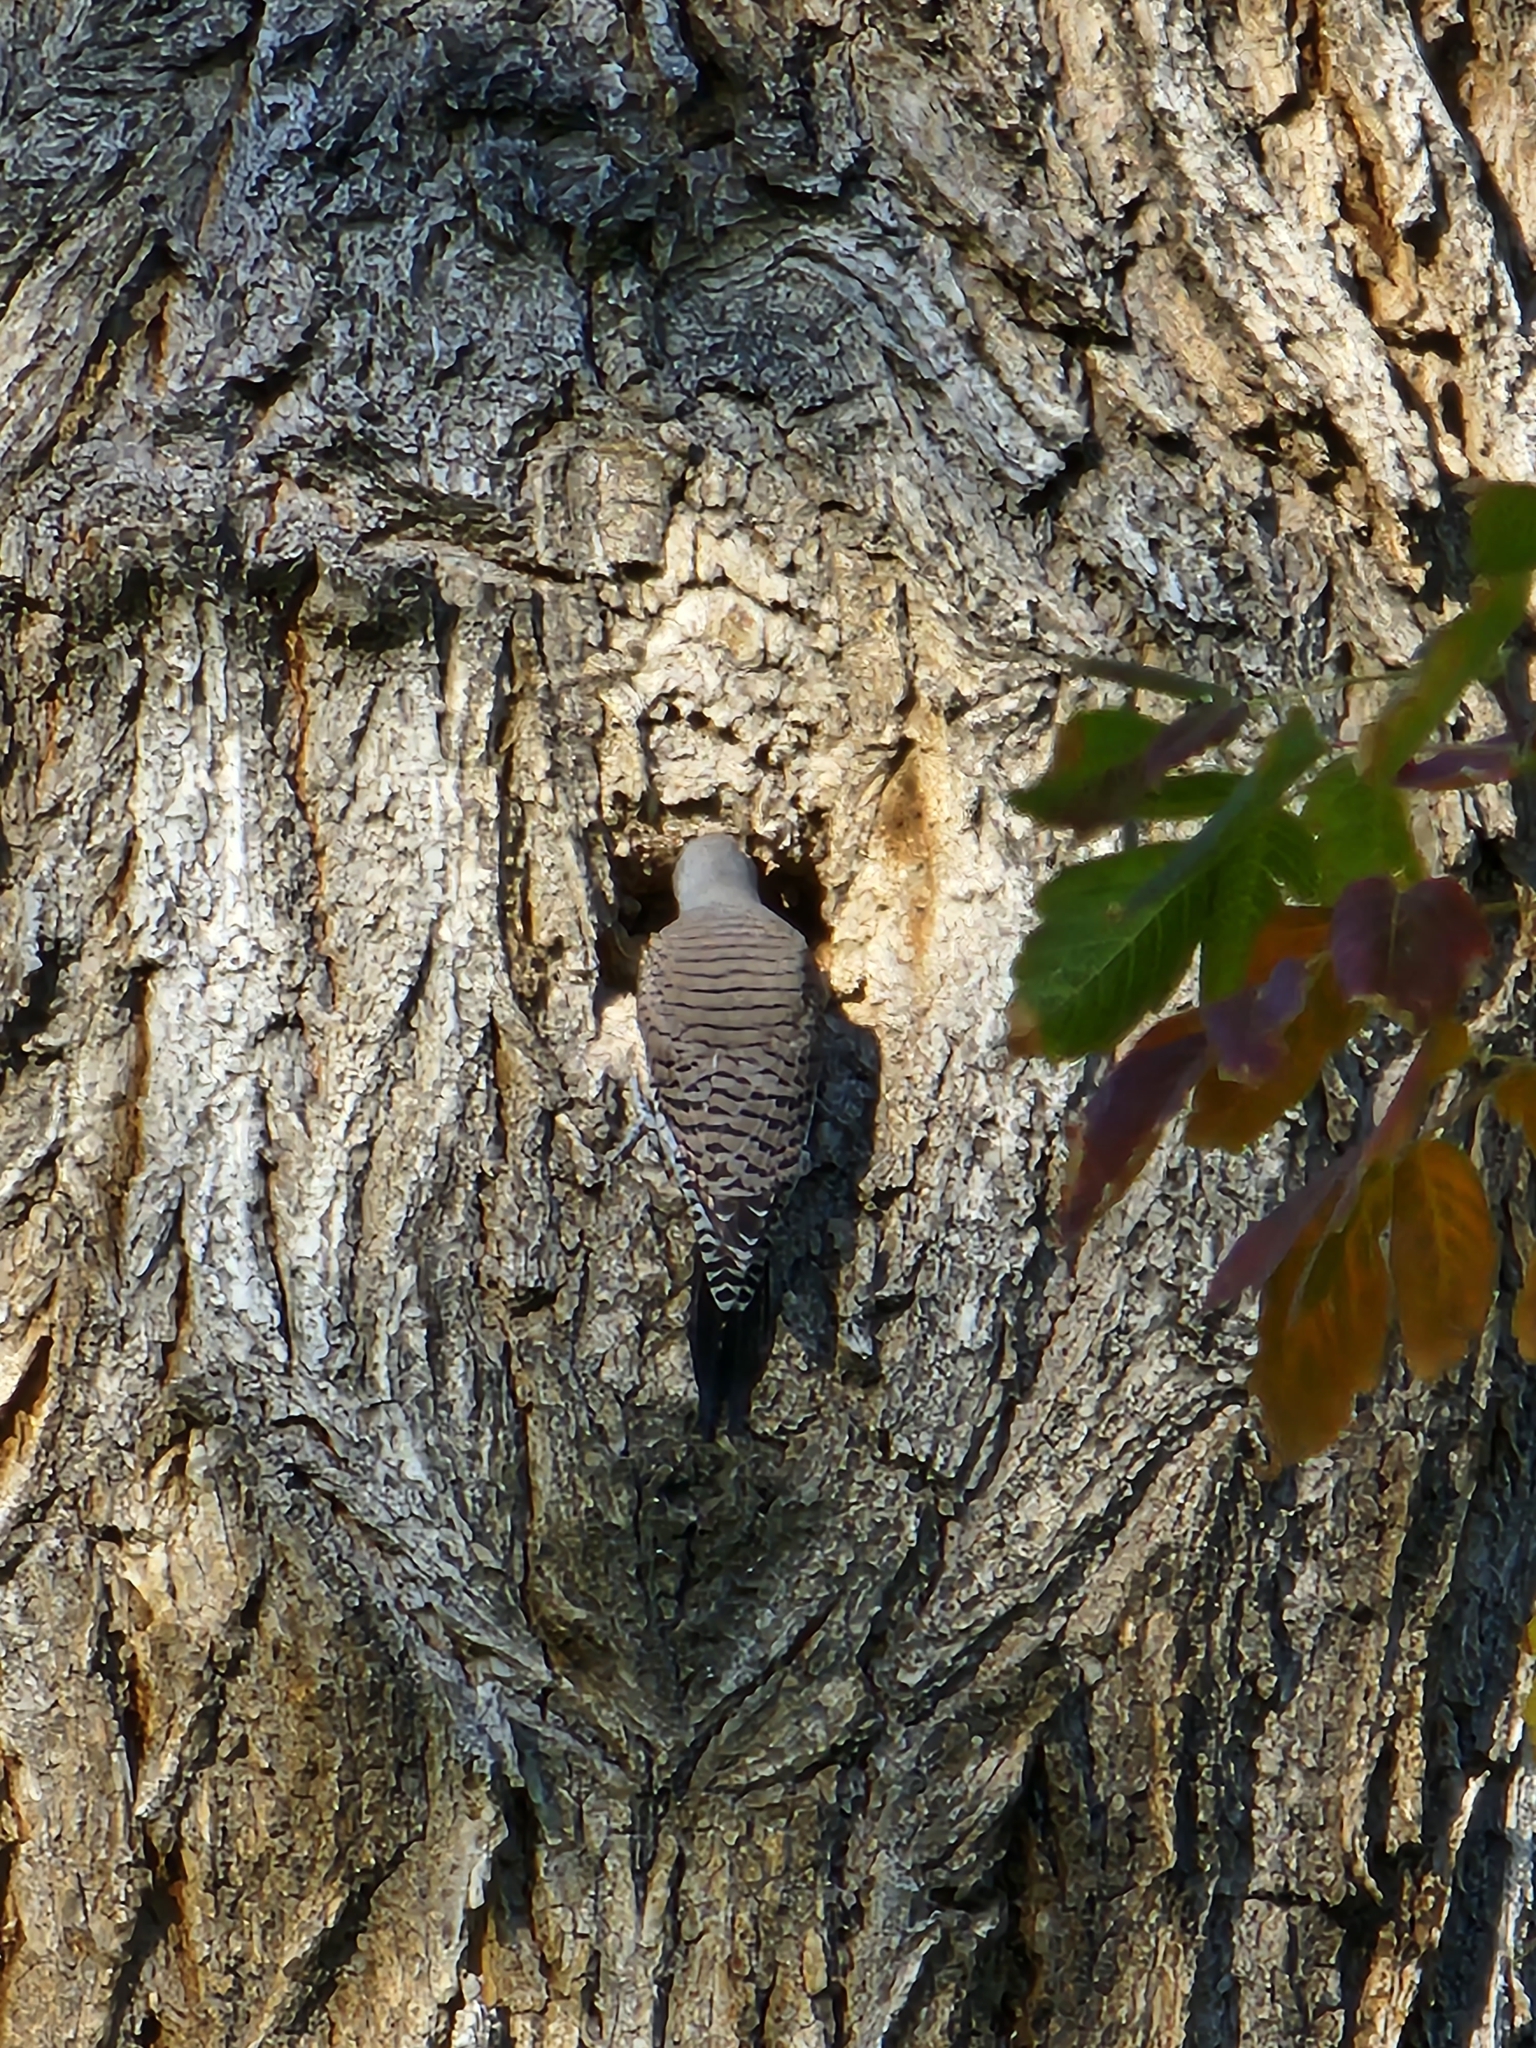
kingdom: Animalia
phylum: Chordata
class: Aves
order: Piciformes
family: Picidae
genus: Colaptes
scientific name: Colaptes auratus
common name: Northern flicker
